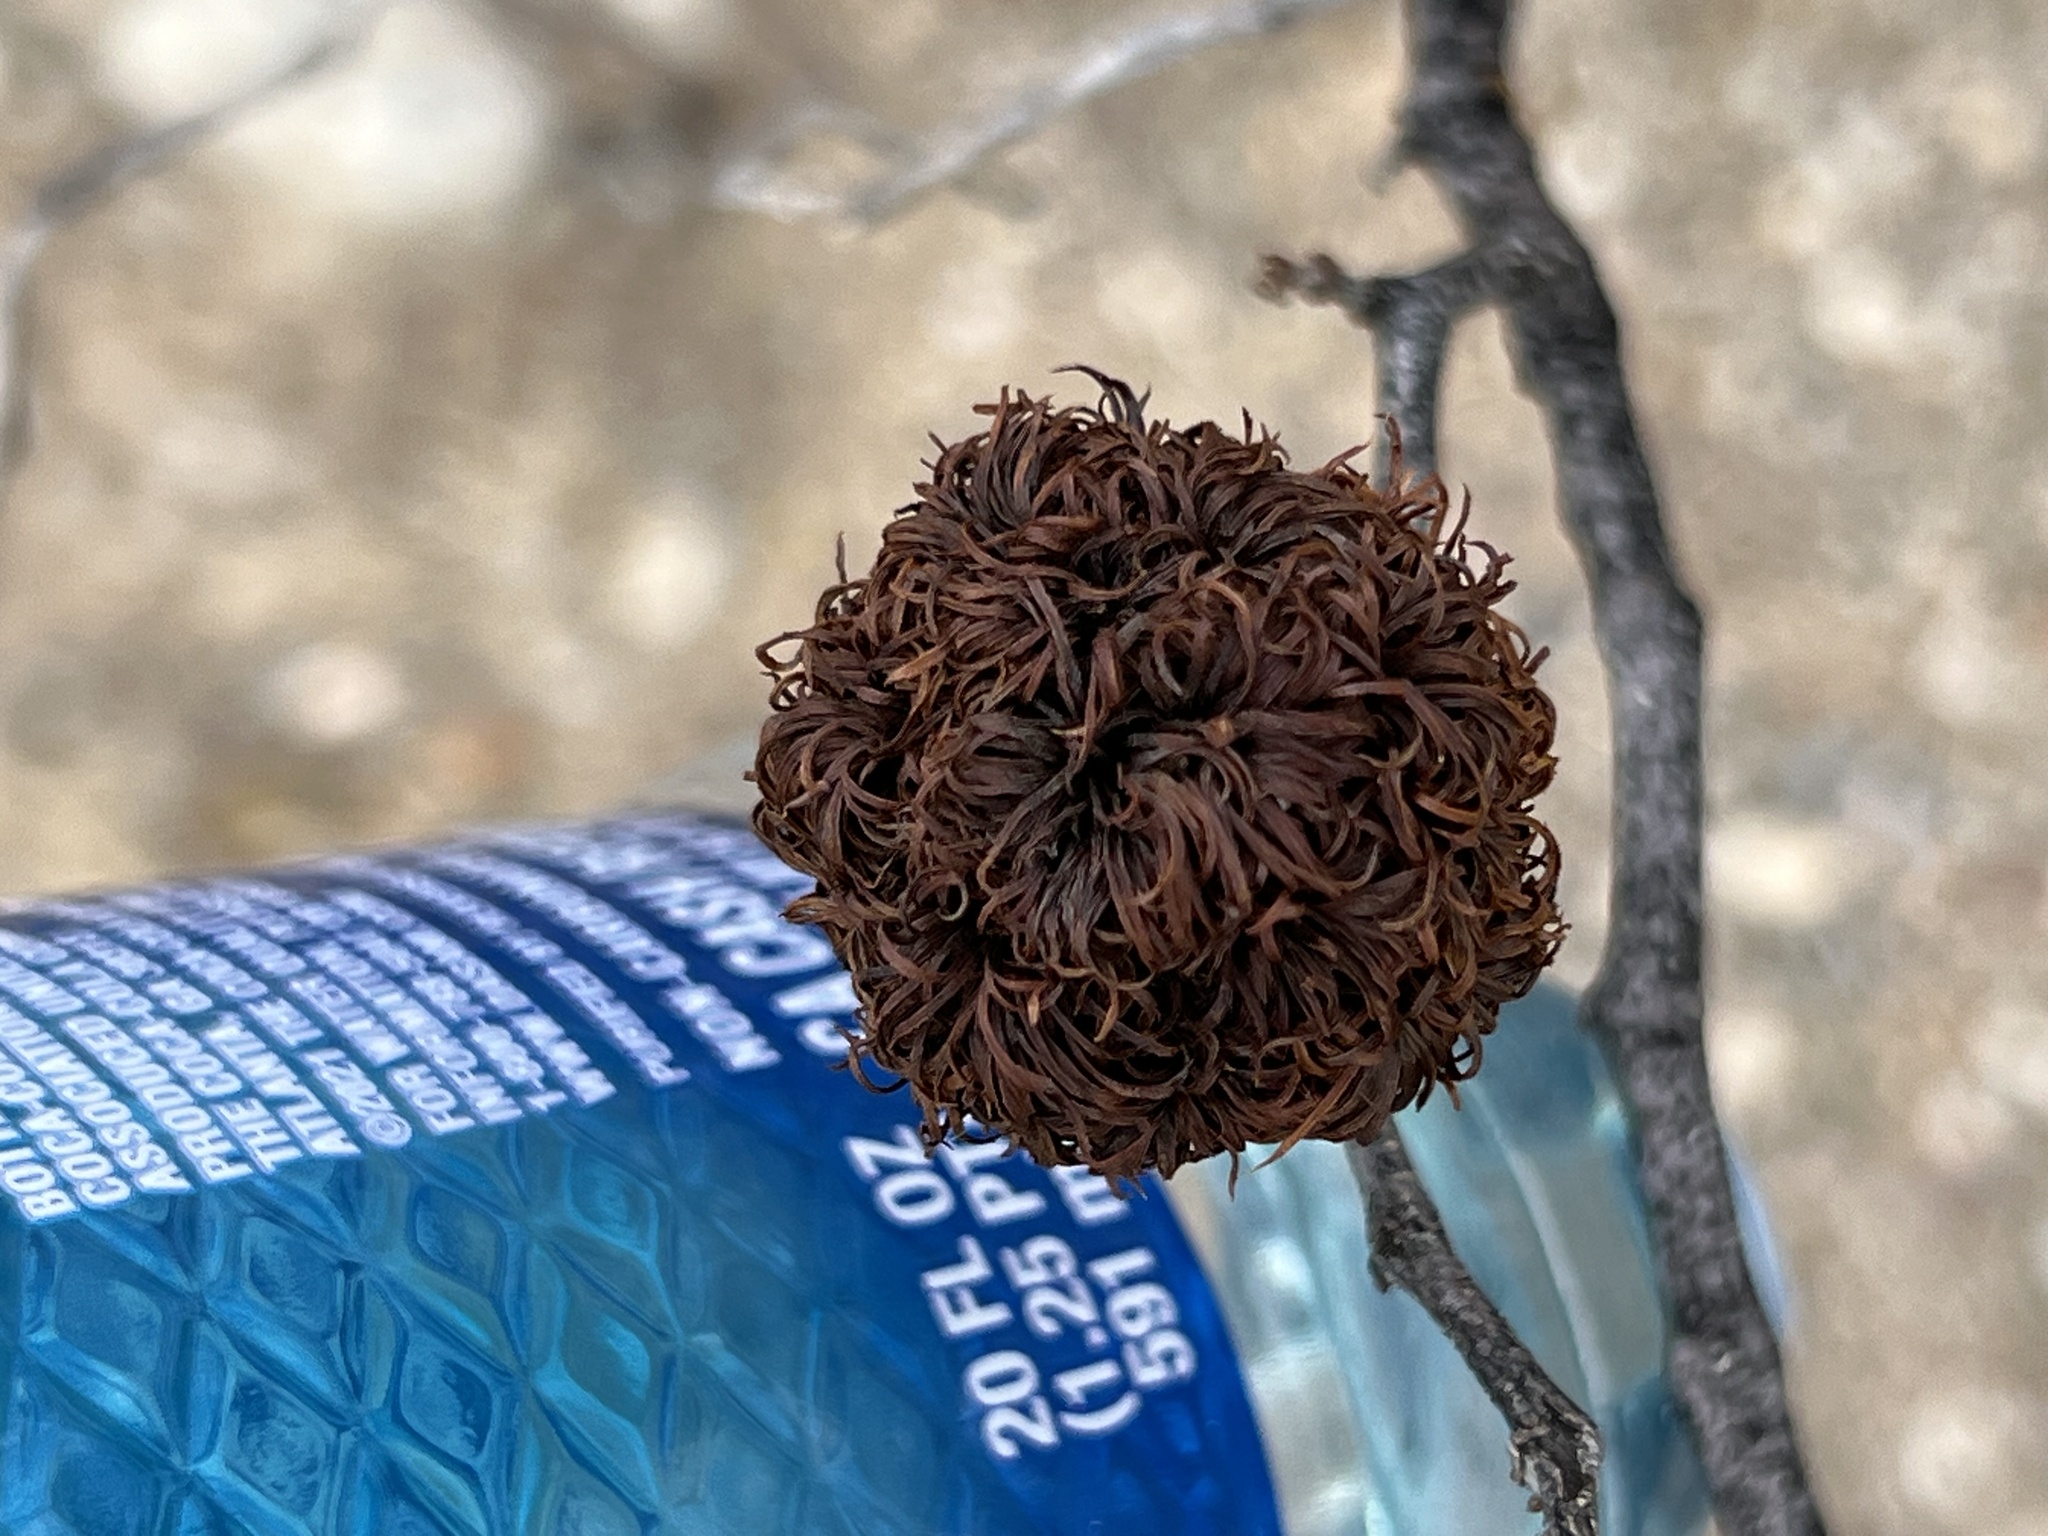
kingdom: Animalia
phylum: Arthropoda
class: Insecta
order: Diptera
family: Cecidomyiidae
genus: Asphondylia
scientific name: Asphondylia auripila
